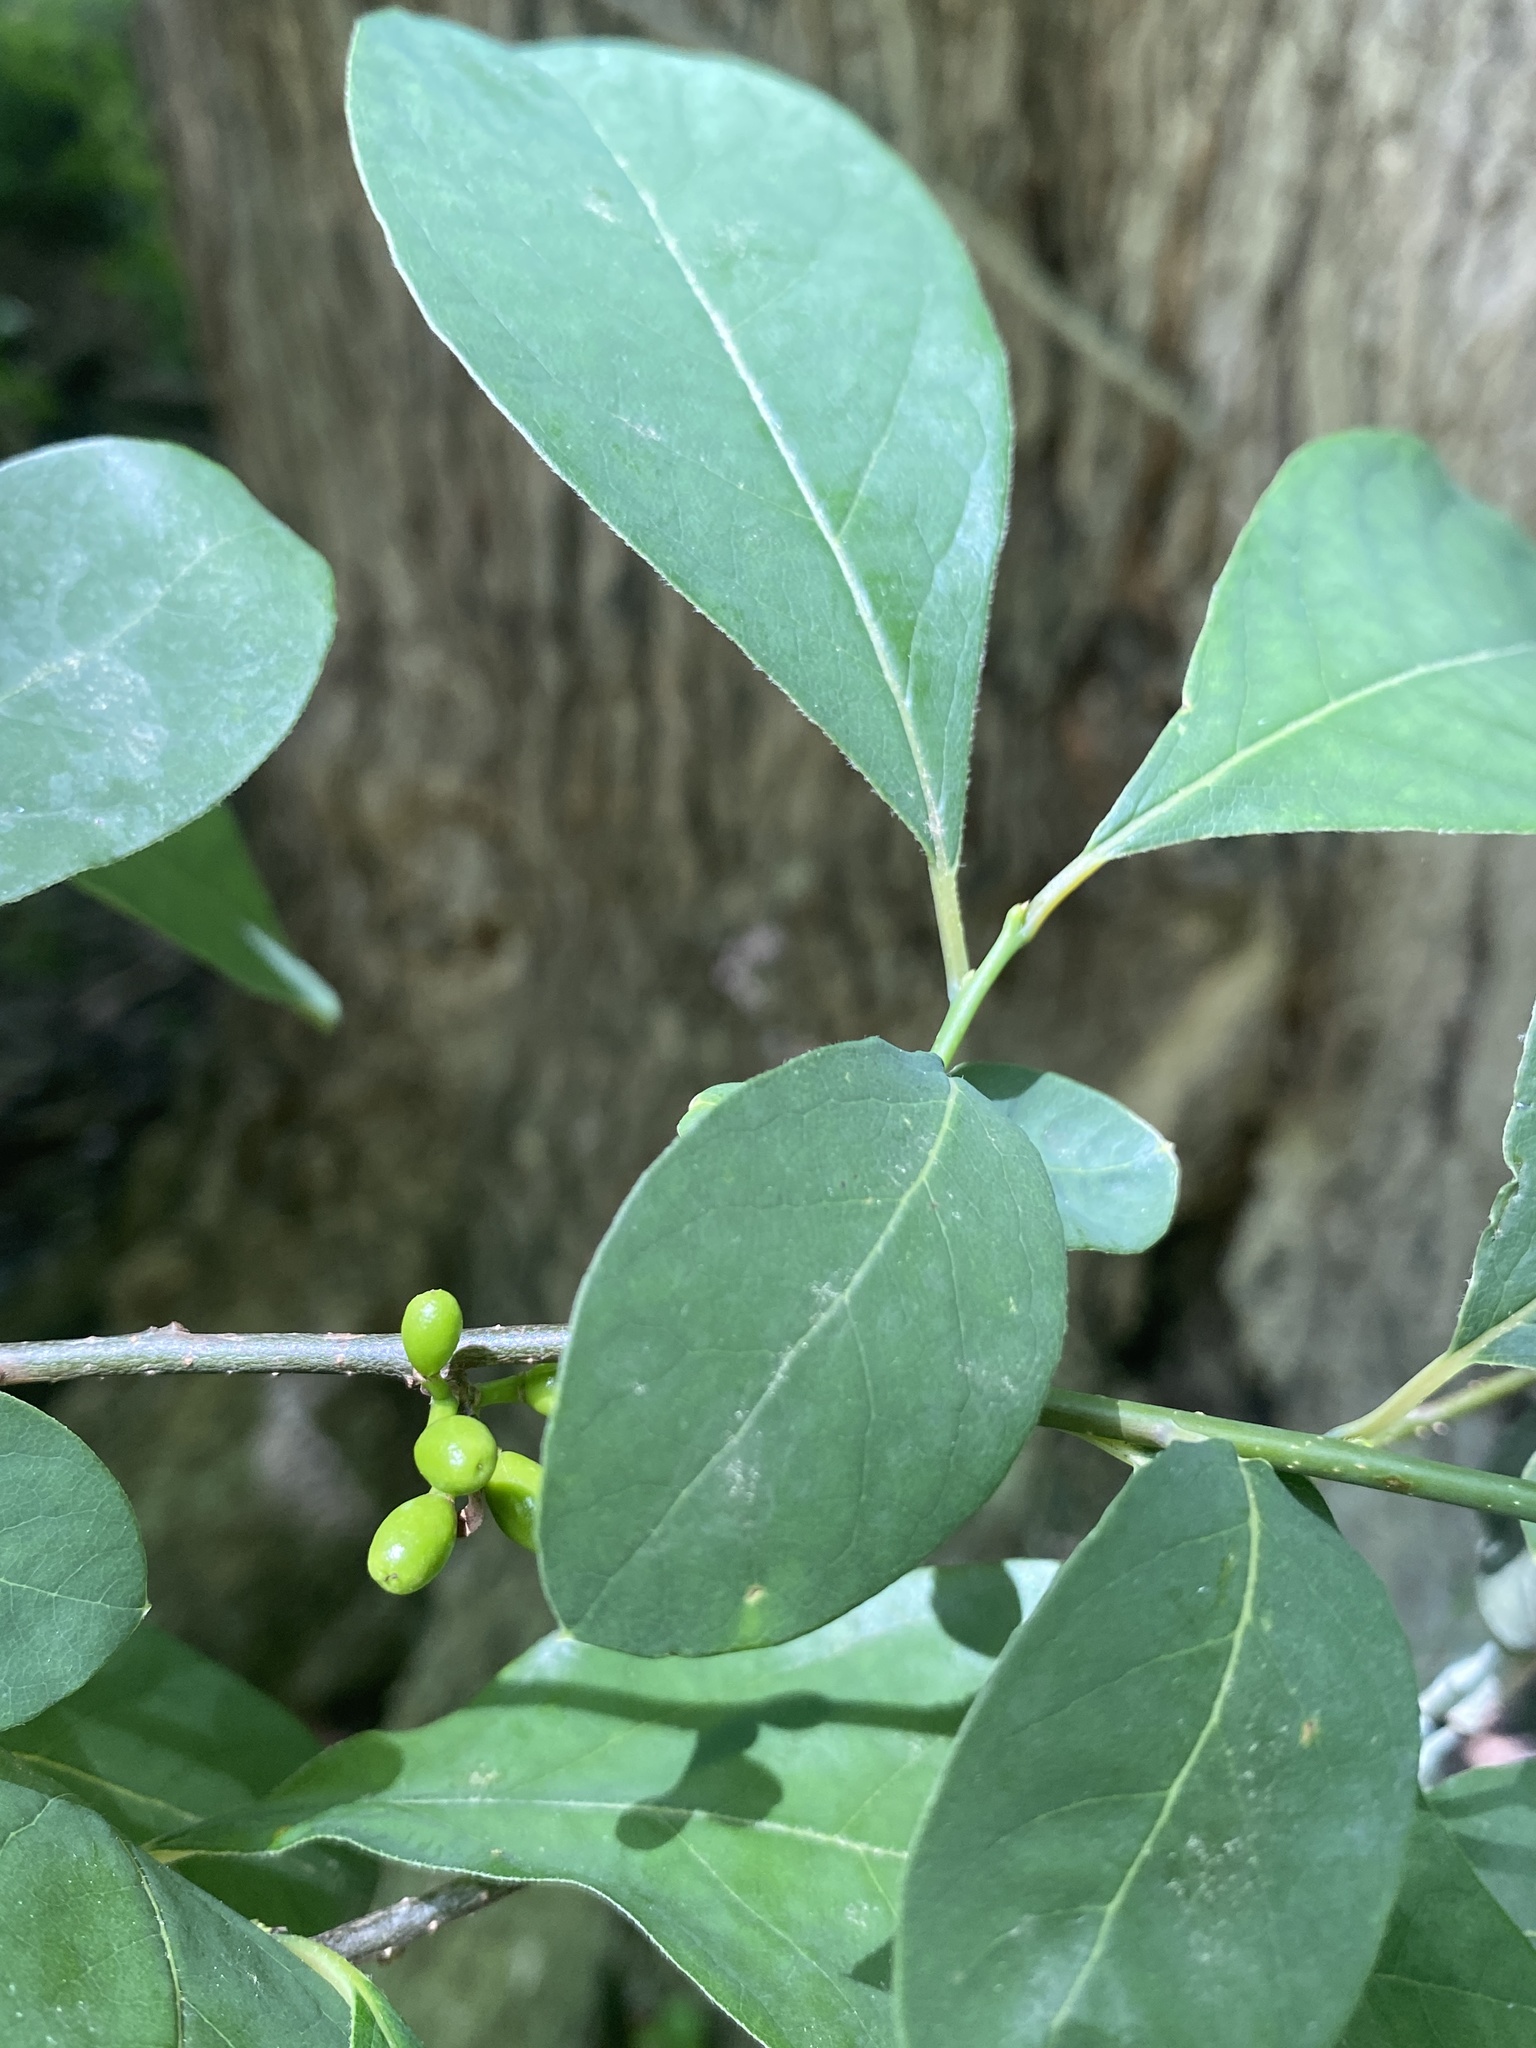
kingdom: Plantae
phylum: Tracheophyta
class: Magnoliopsida
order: Laurales
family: Lauraceae
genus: Lindera
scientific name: Lindera benzoin
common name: Spicebush
